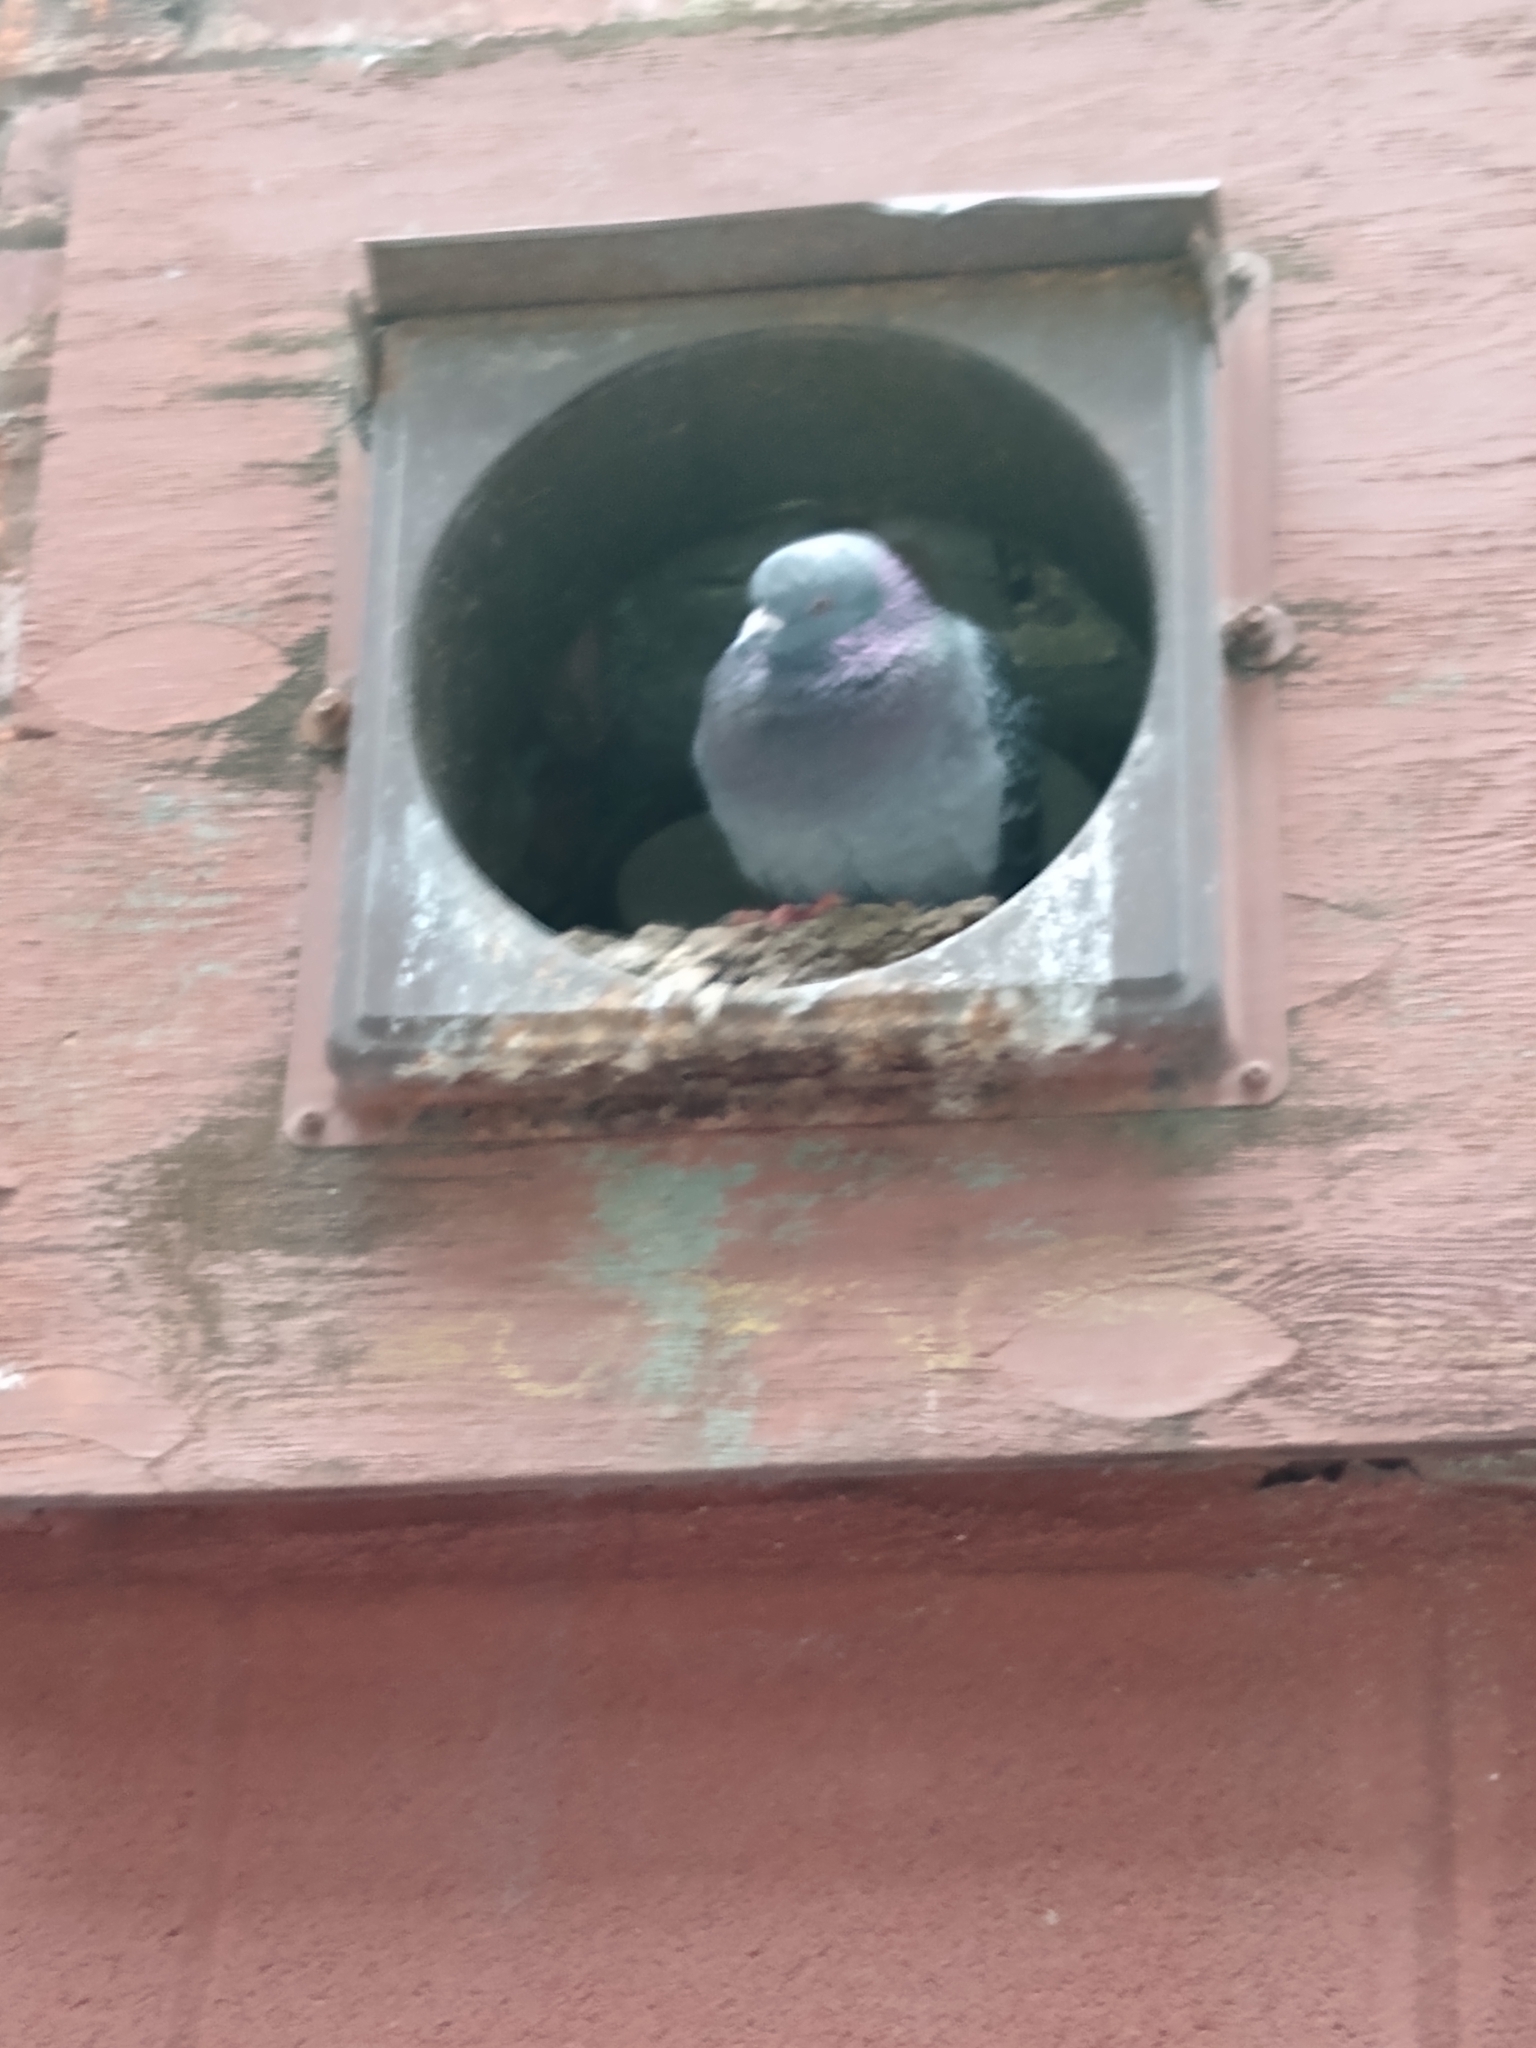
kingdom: Animalia
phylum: Chordata
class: Aves
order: Columbiformes
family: Columbidae
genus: Columba
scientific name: Columba livia
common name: Rock pigeon
